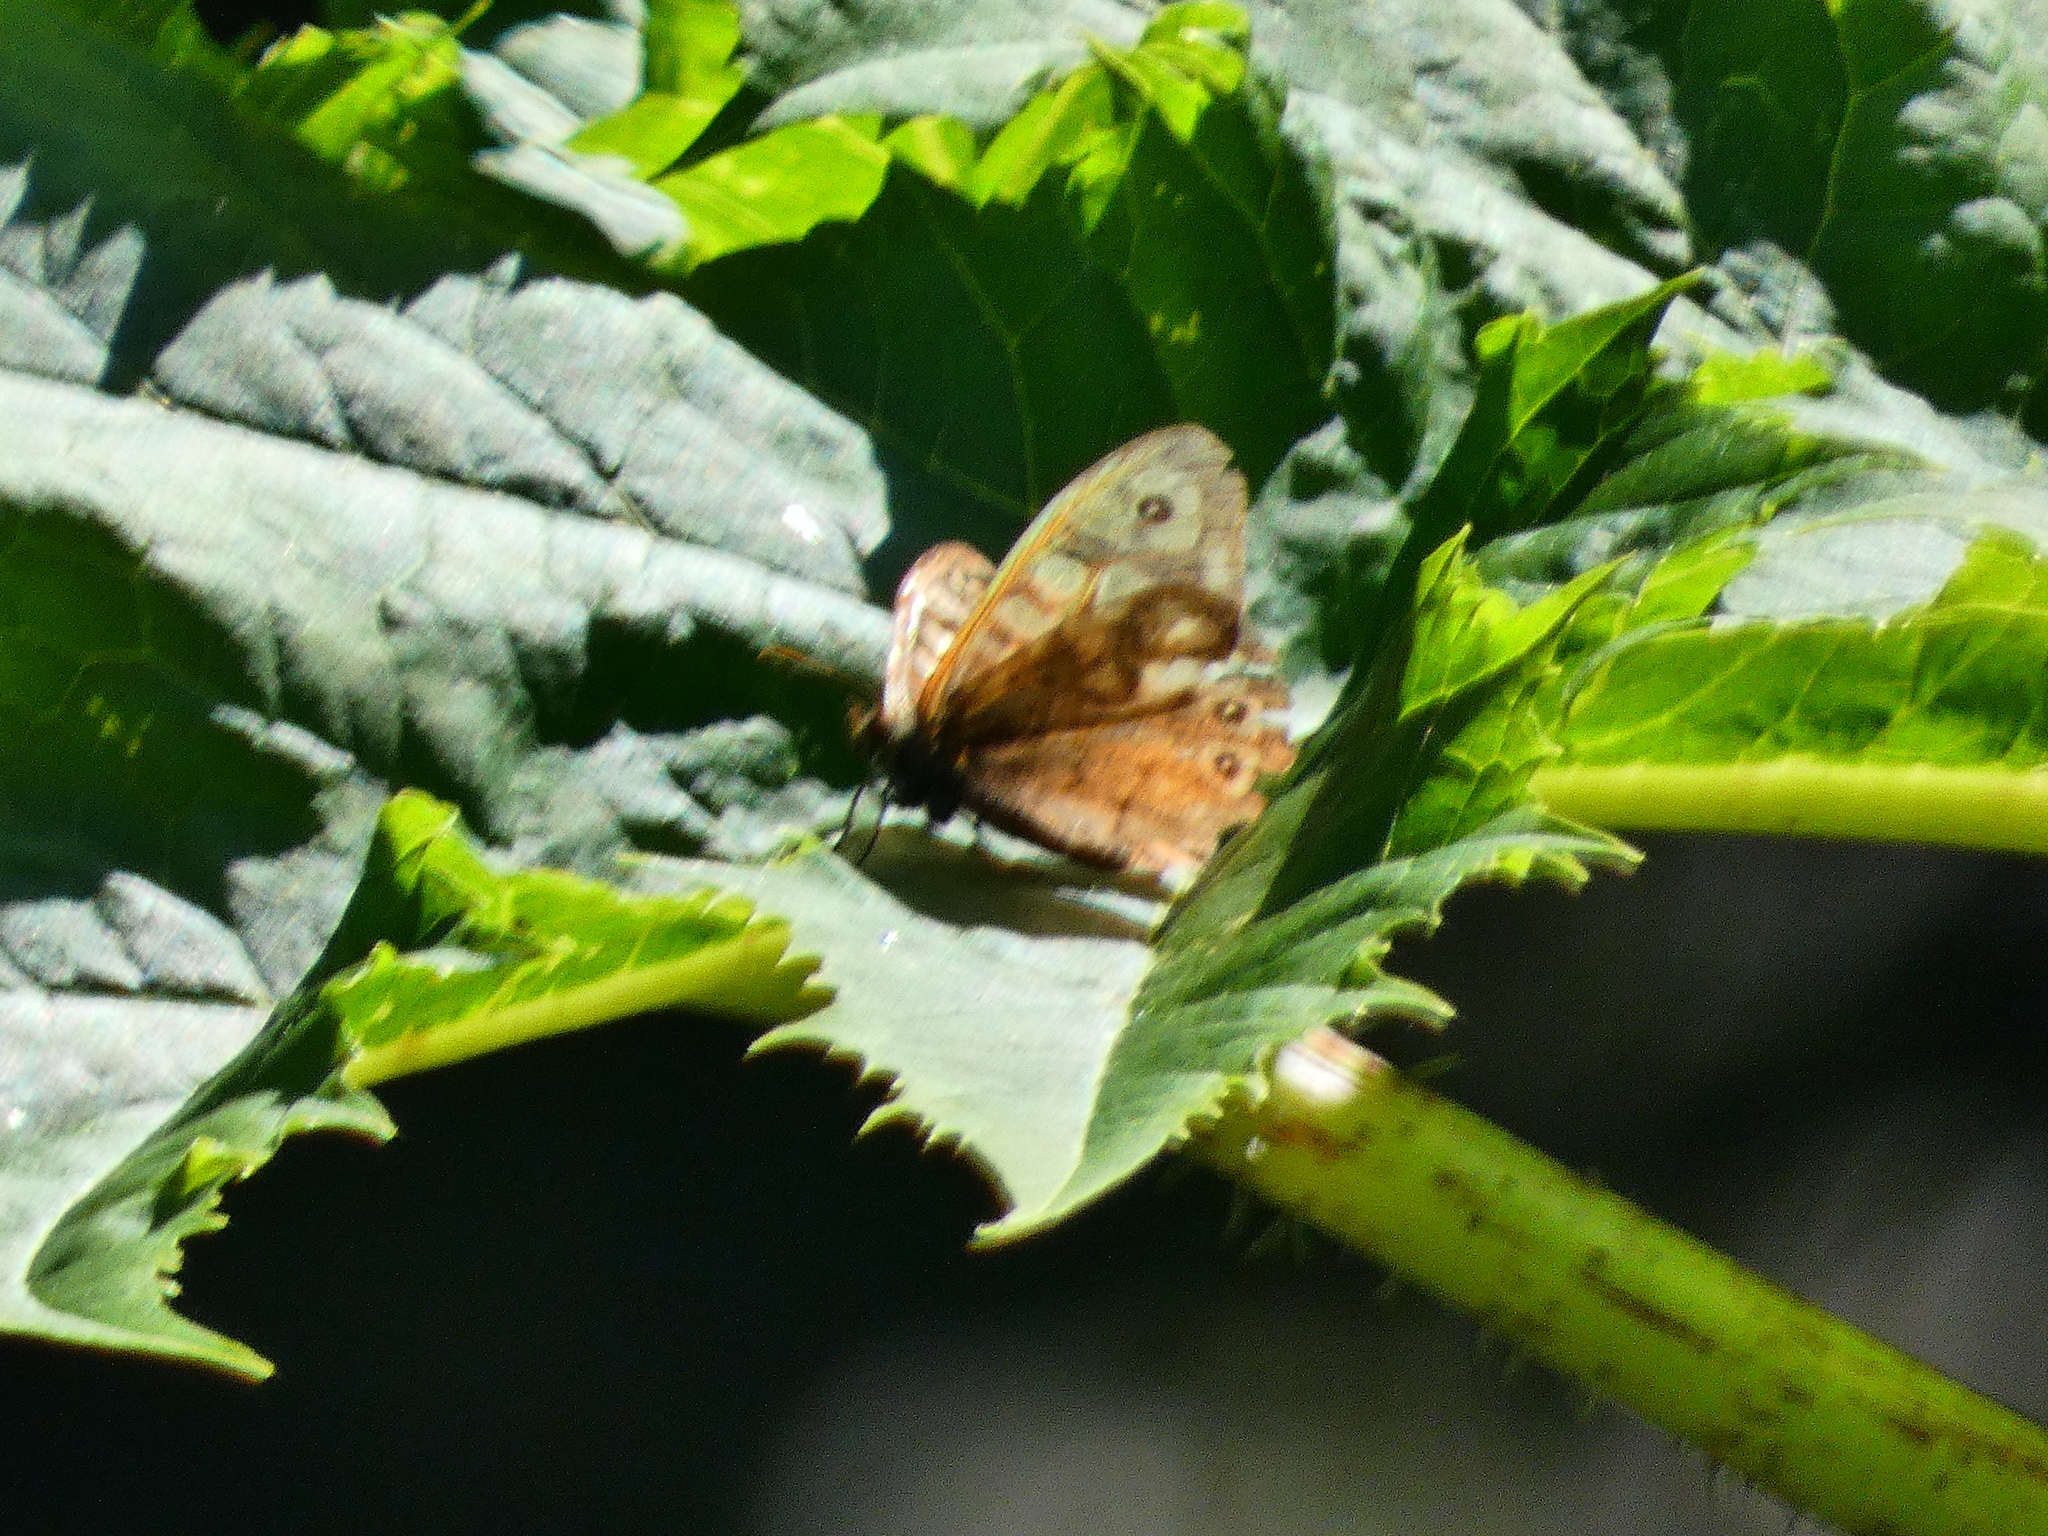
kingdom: Animalia
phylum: Arthropoda
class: Insecta
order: Lepidoptera
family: Nymphalidae
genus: Pararge
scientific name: Pararge aegeria
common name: Speckled wood
